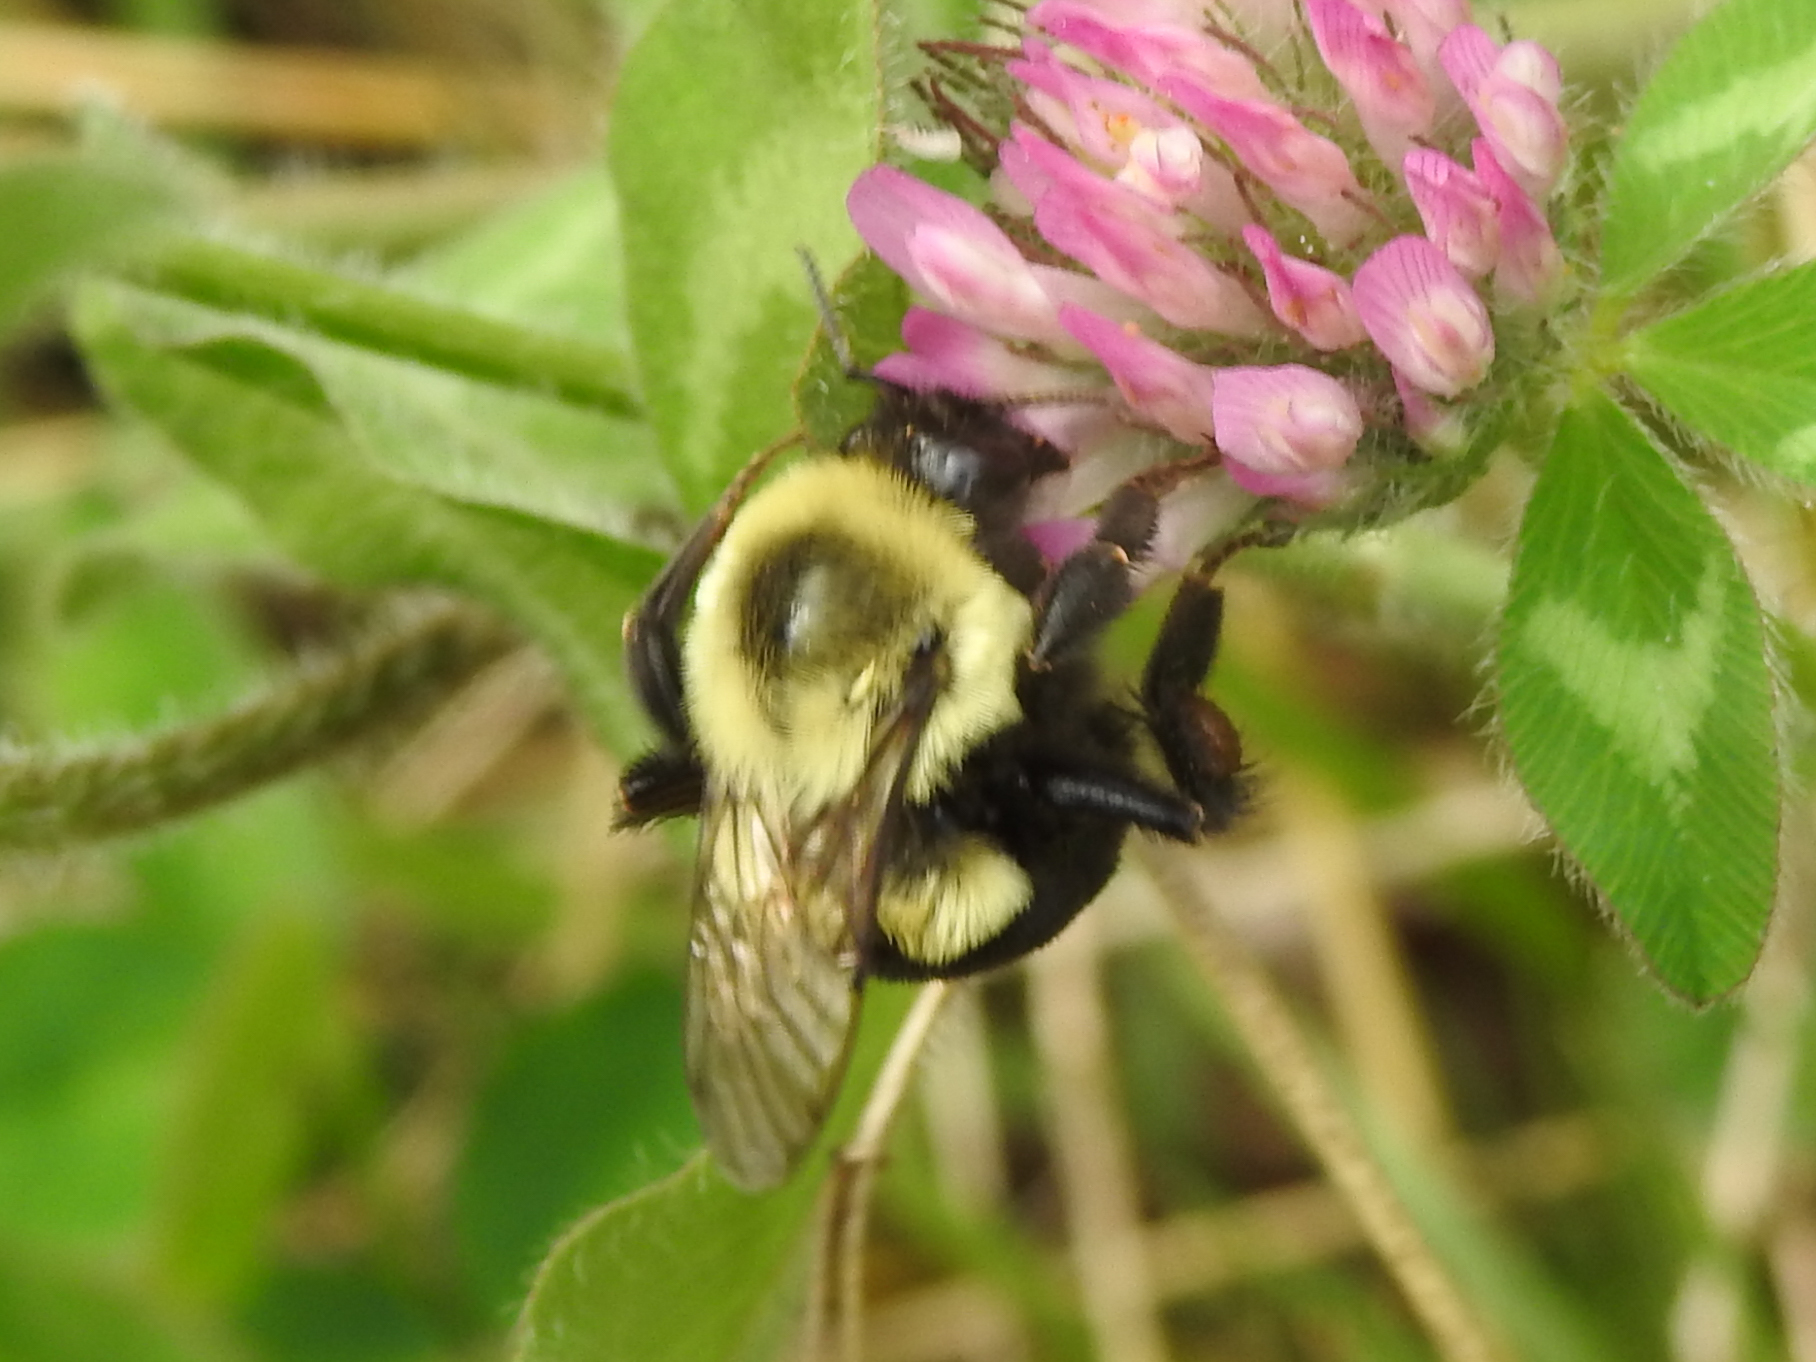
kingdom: Animalia
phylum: Arthropoda
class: Insecta
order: Hymenoptera
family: Apidae
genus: Bombus
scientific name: Bombus impatiens
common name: Common eastern bumble bee
